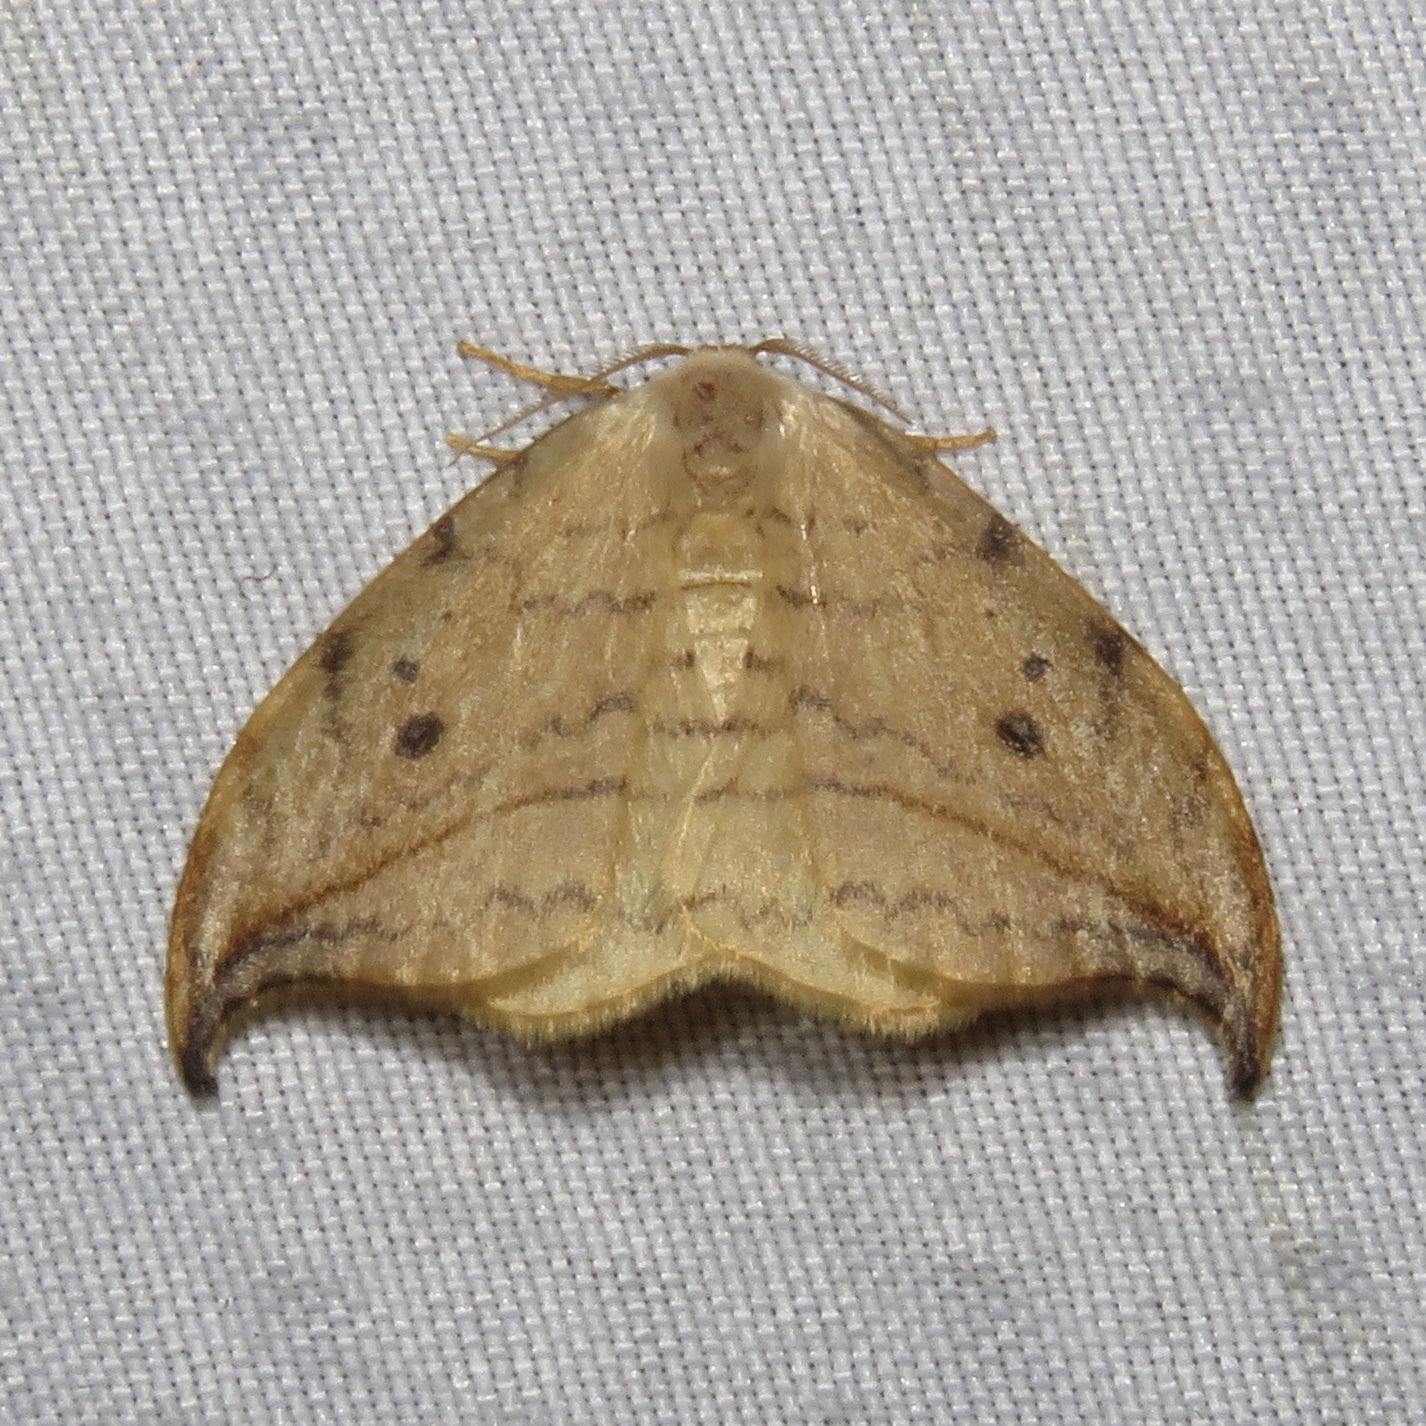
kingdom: Animalia
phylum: Arthropoda
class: Insecta
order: Lepidoptera
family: Drepanidae
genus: Drepana
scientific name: Drepana arcuata
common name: Arched hooktip moth
